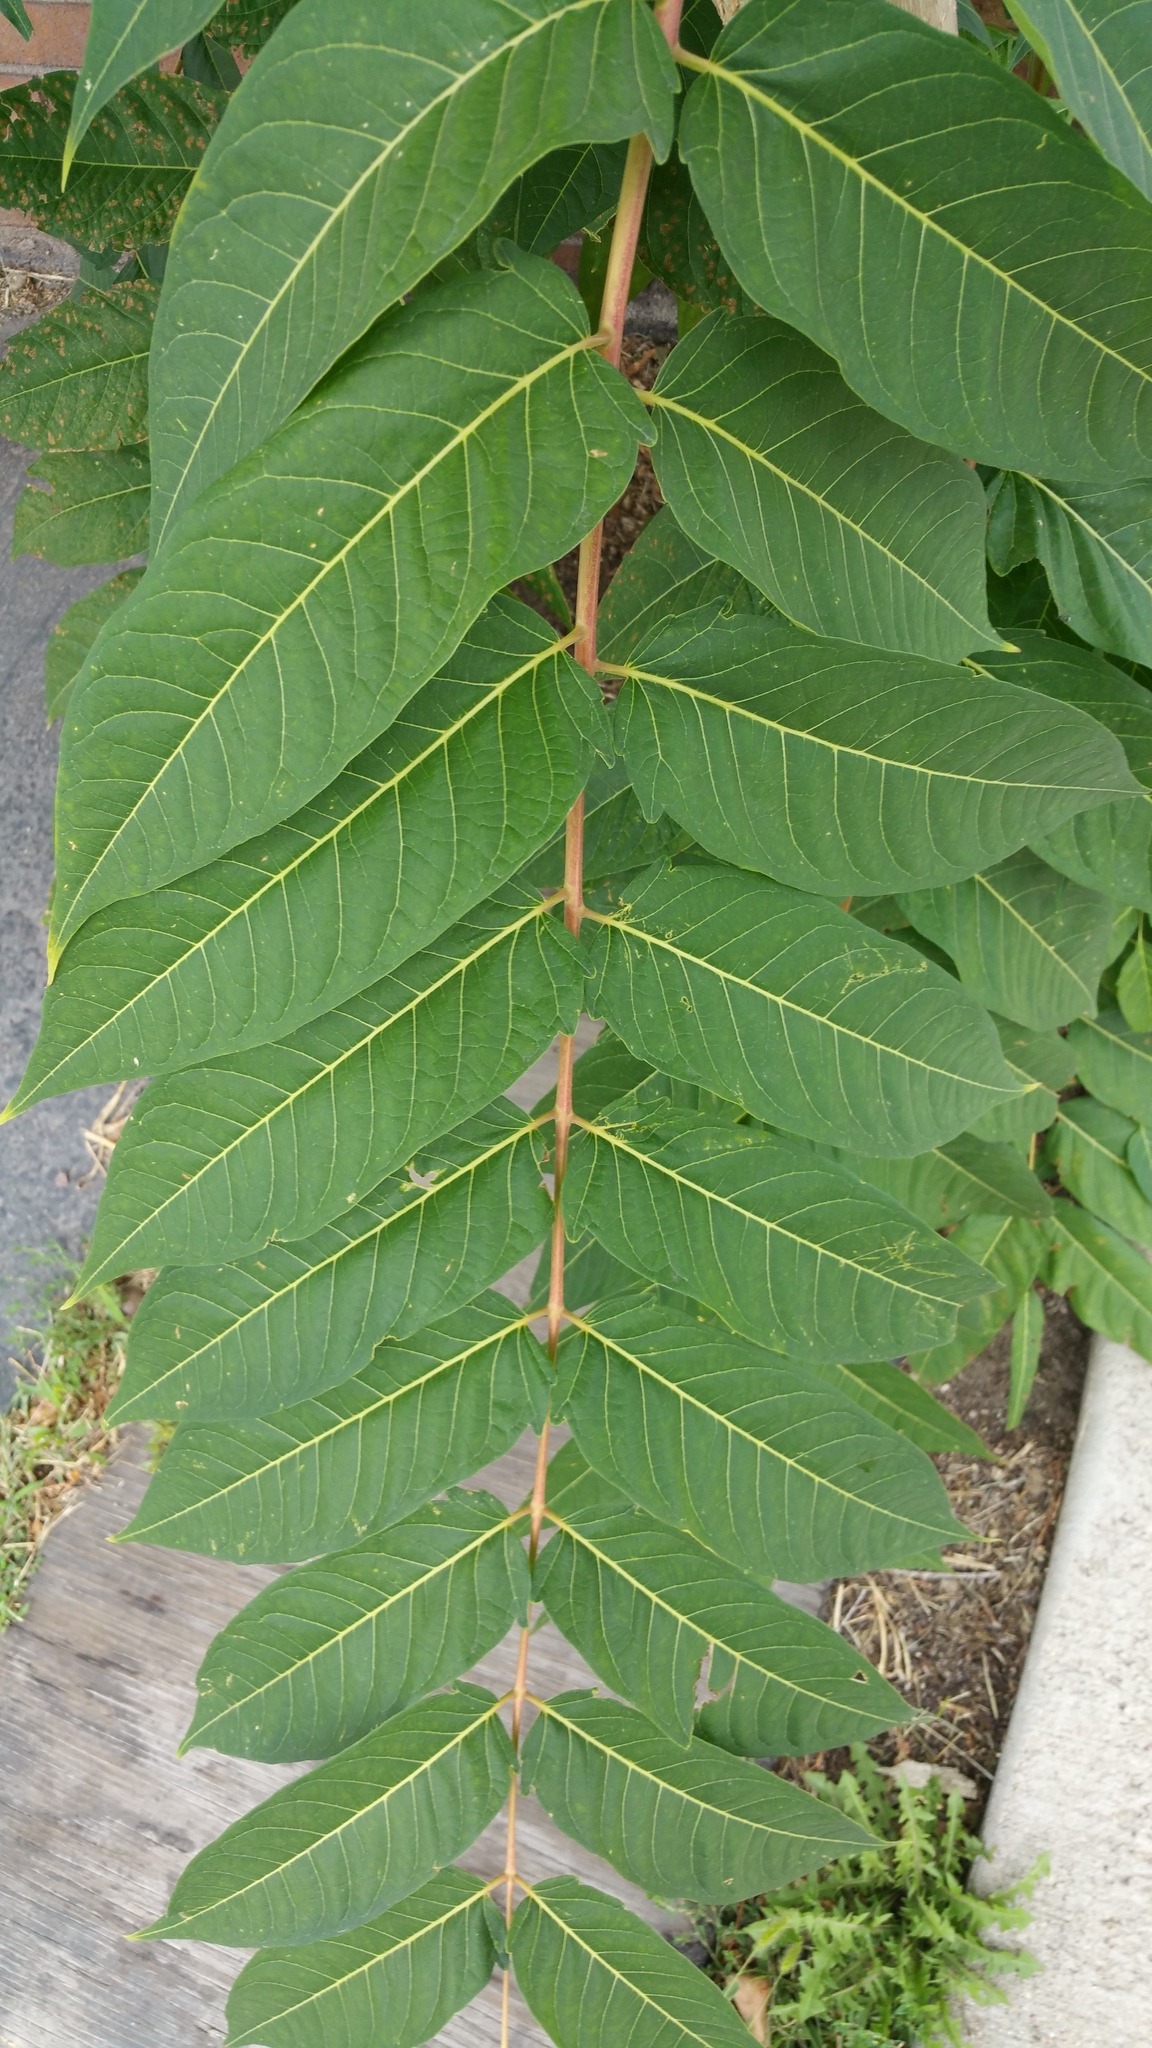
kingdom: Plantae
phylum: Tracheophyta
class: Magnoliopsida
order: Sapindales
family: Simaroubaceae
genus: Ailanthus
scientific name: Ailanthus altissima
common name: Tree-of-heaven
